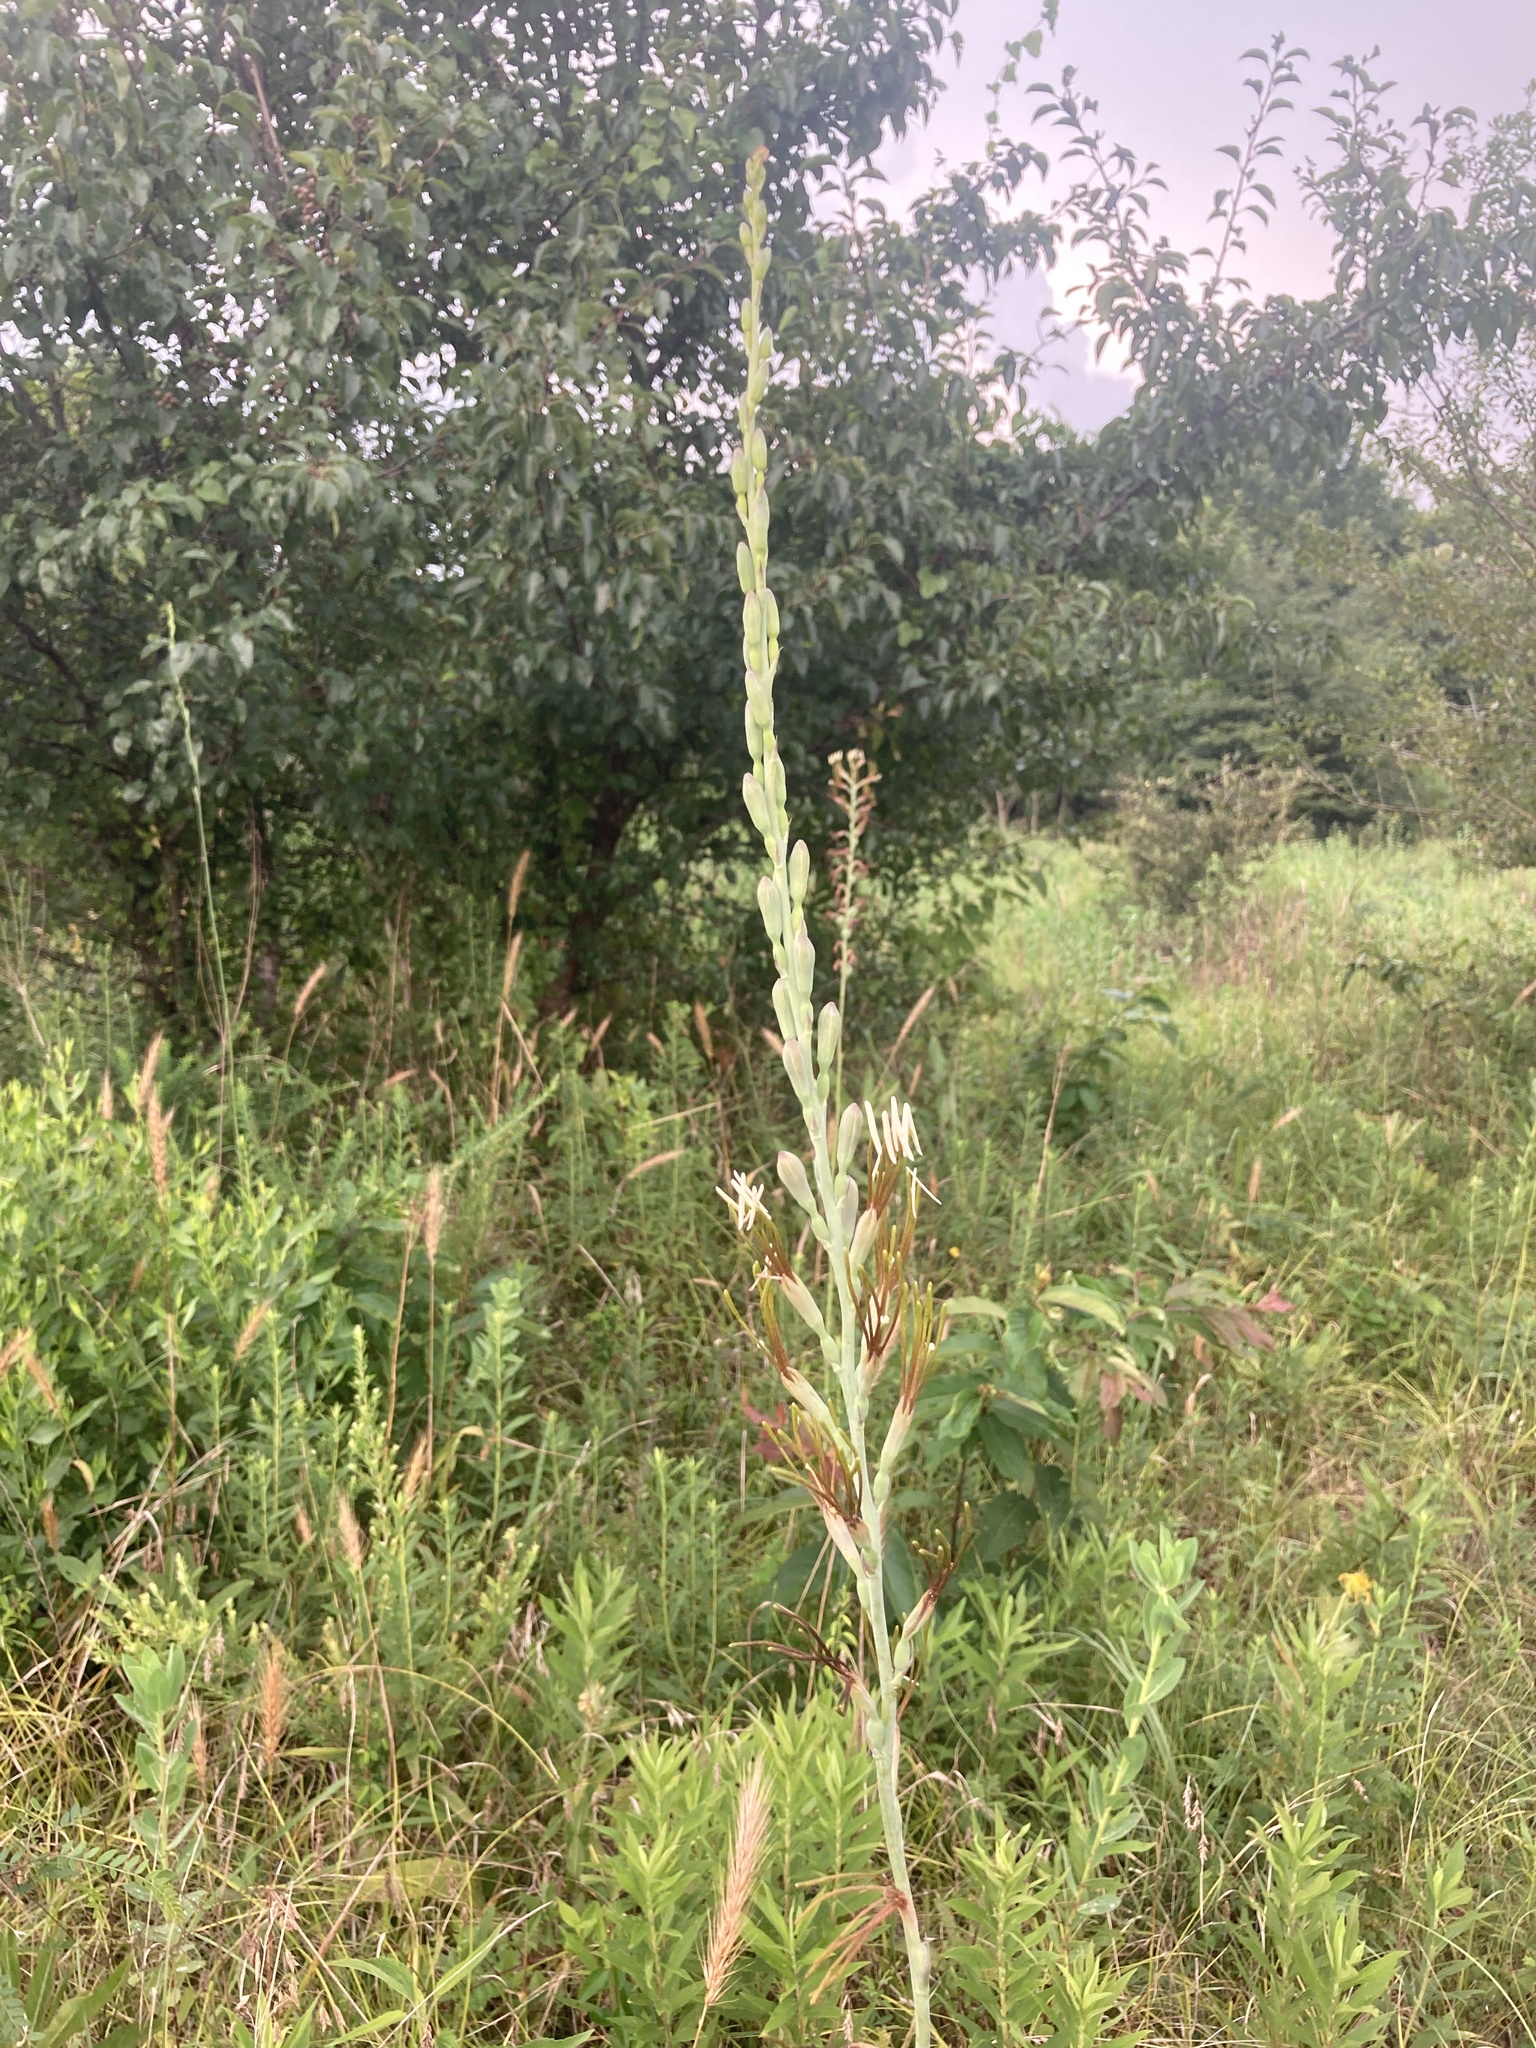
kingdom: Plantae
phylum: Tracheophyta
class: Liliopsida
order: Asparagales
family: Asparagaceae
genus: Agave
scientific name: Agave virginica
